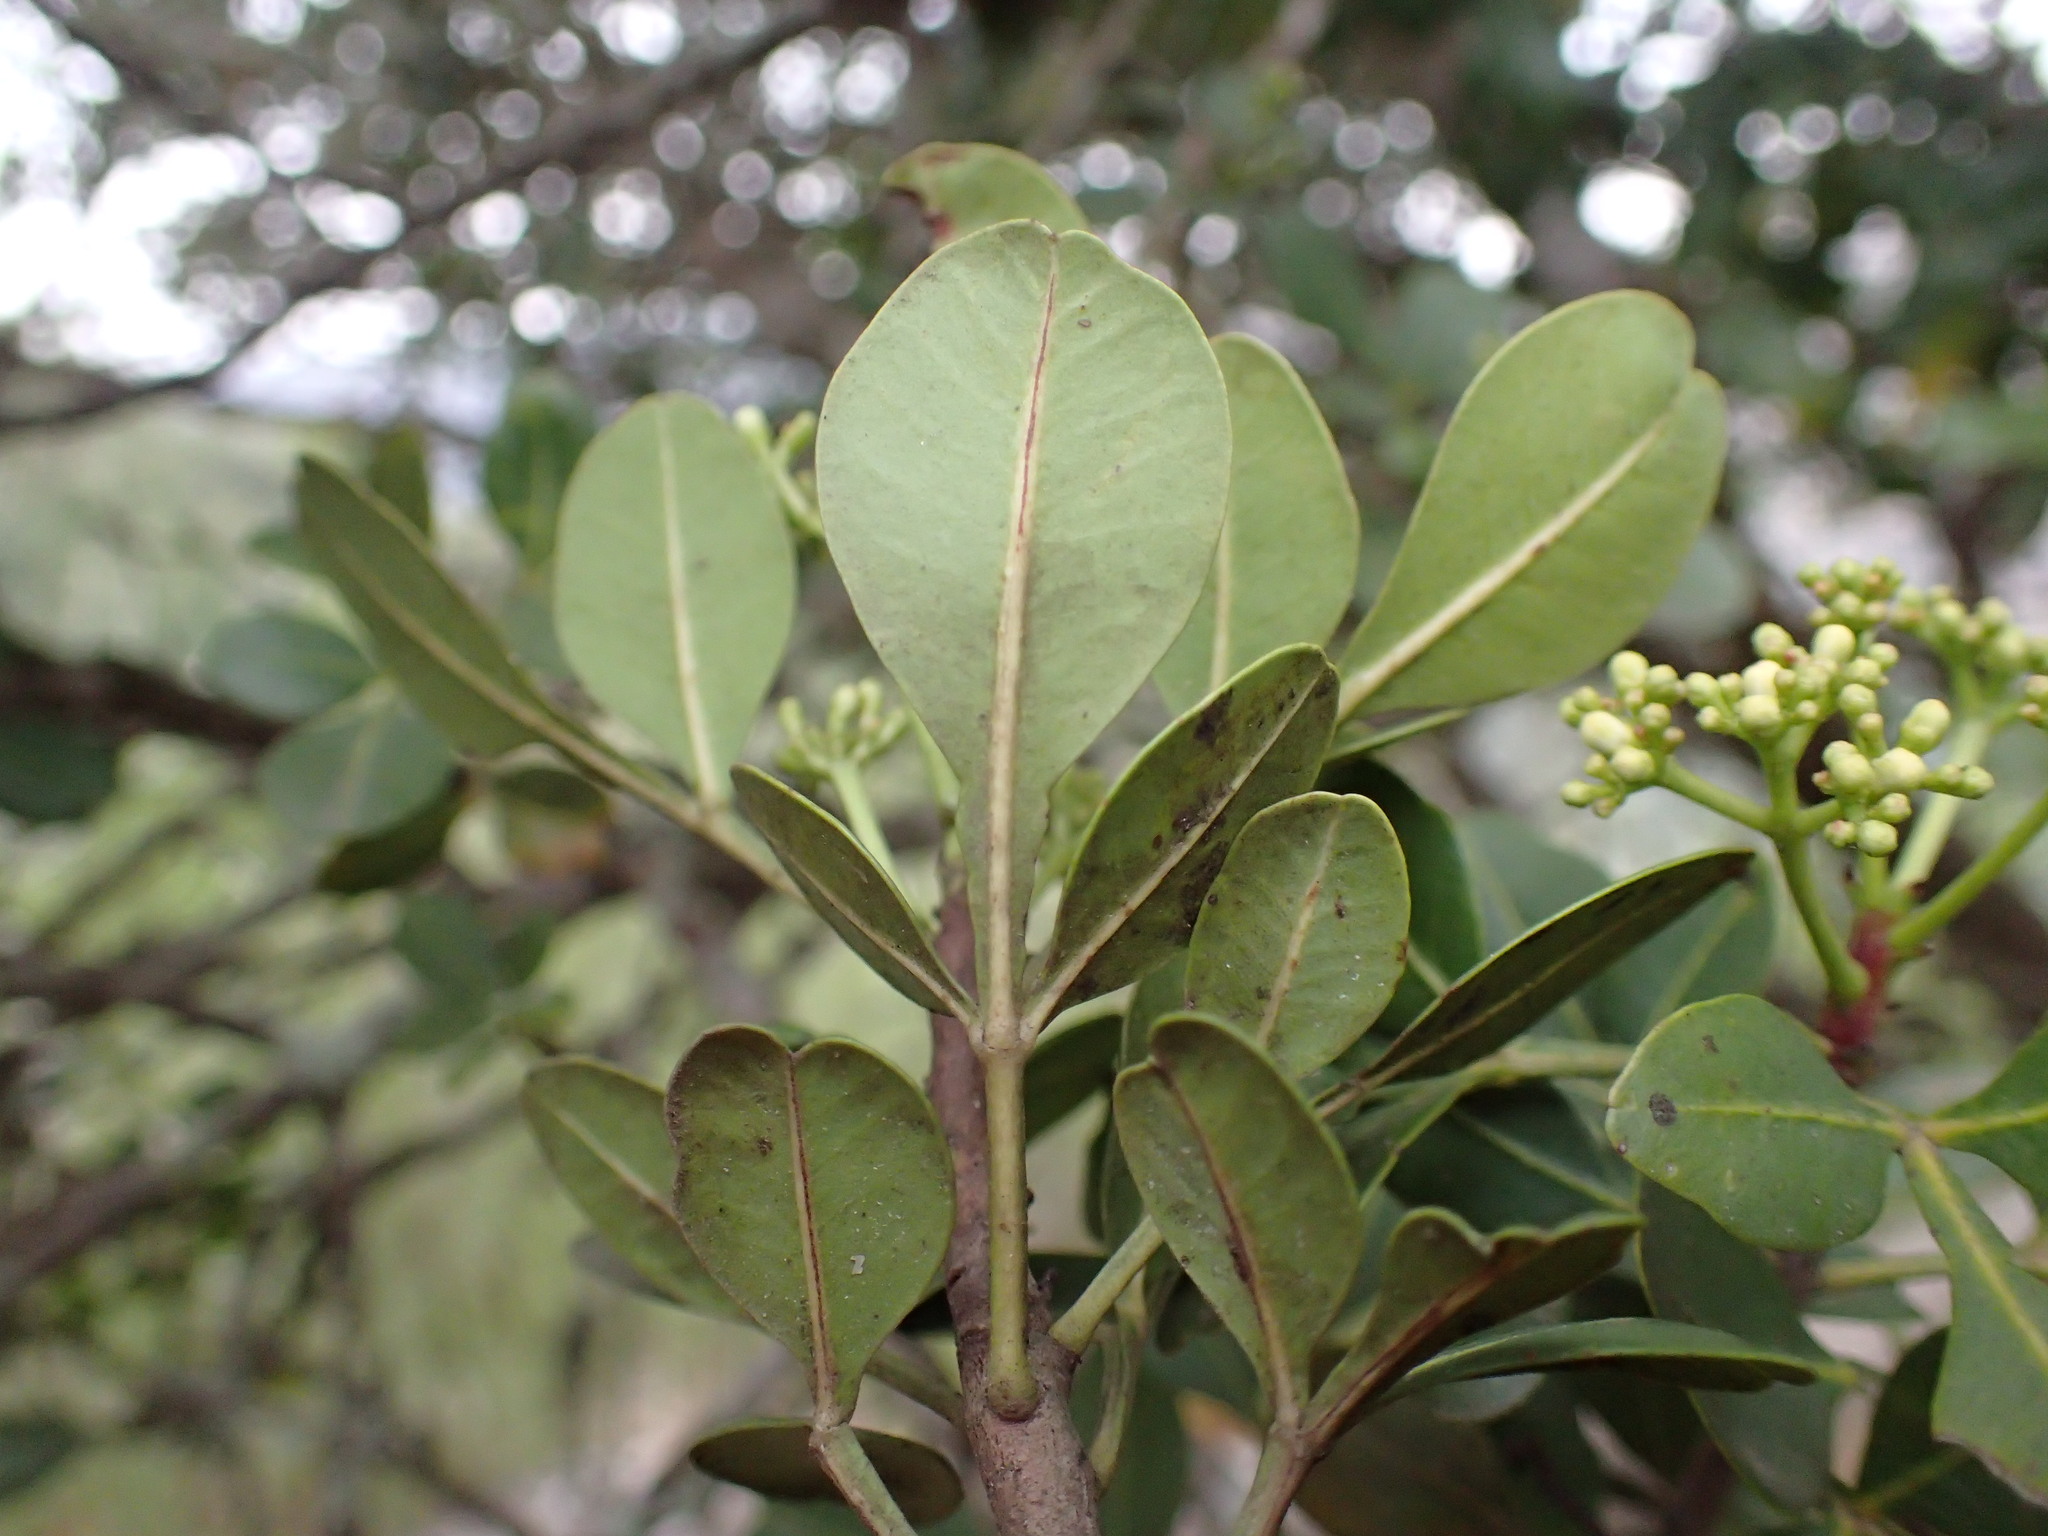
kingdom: Plantae
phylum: Tracheophyta
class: Magnoliopsida
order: Sapindales
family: Meliaceae
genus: Ekebergia
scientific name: Ekebergia pterophylla
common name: Cape ash
